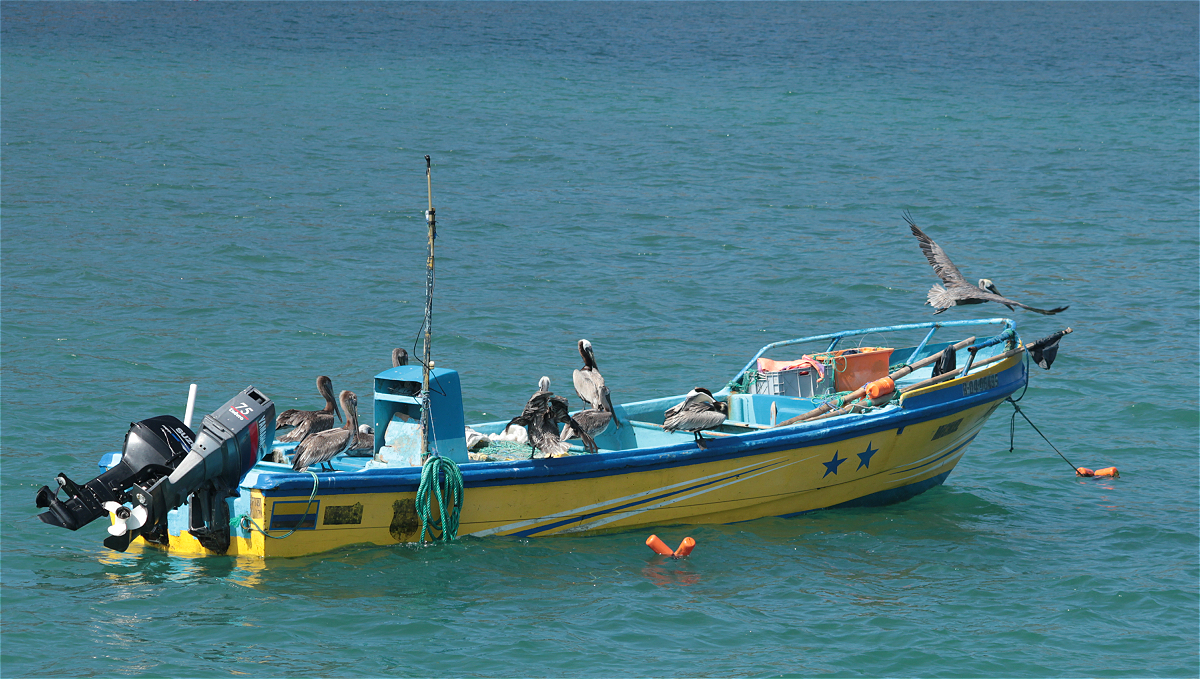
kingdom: Animalia
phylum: Chordata
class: Aves
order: Pelecaniformes
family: Pelecanidae
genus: Pelecanus
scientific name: Pelecanus occidentalis
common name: Brown pelican
